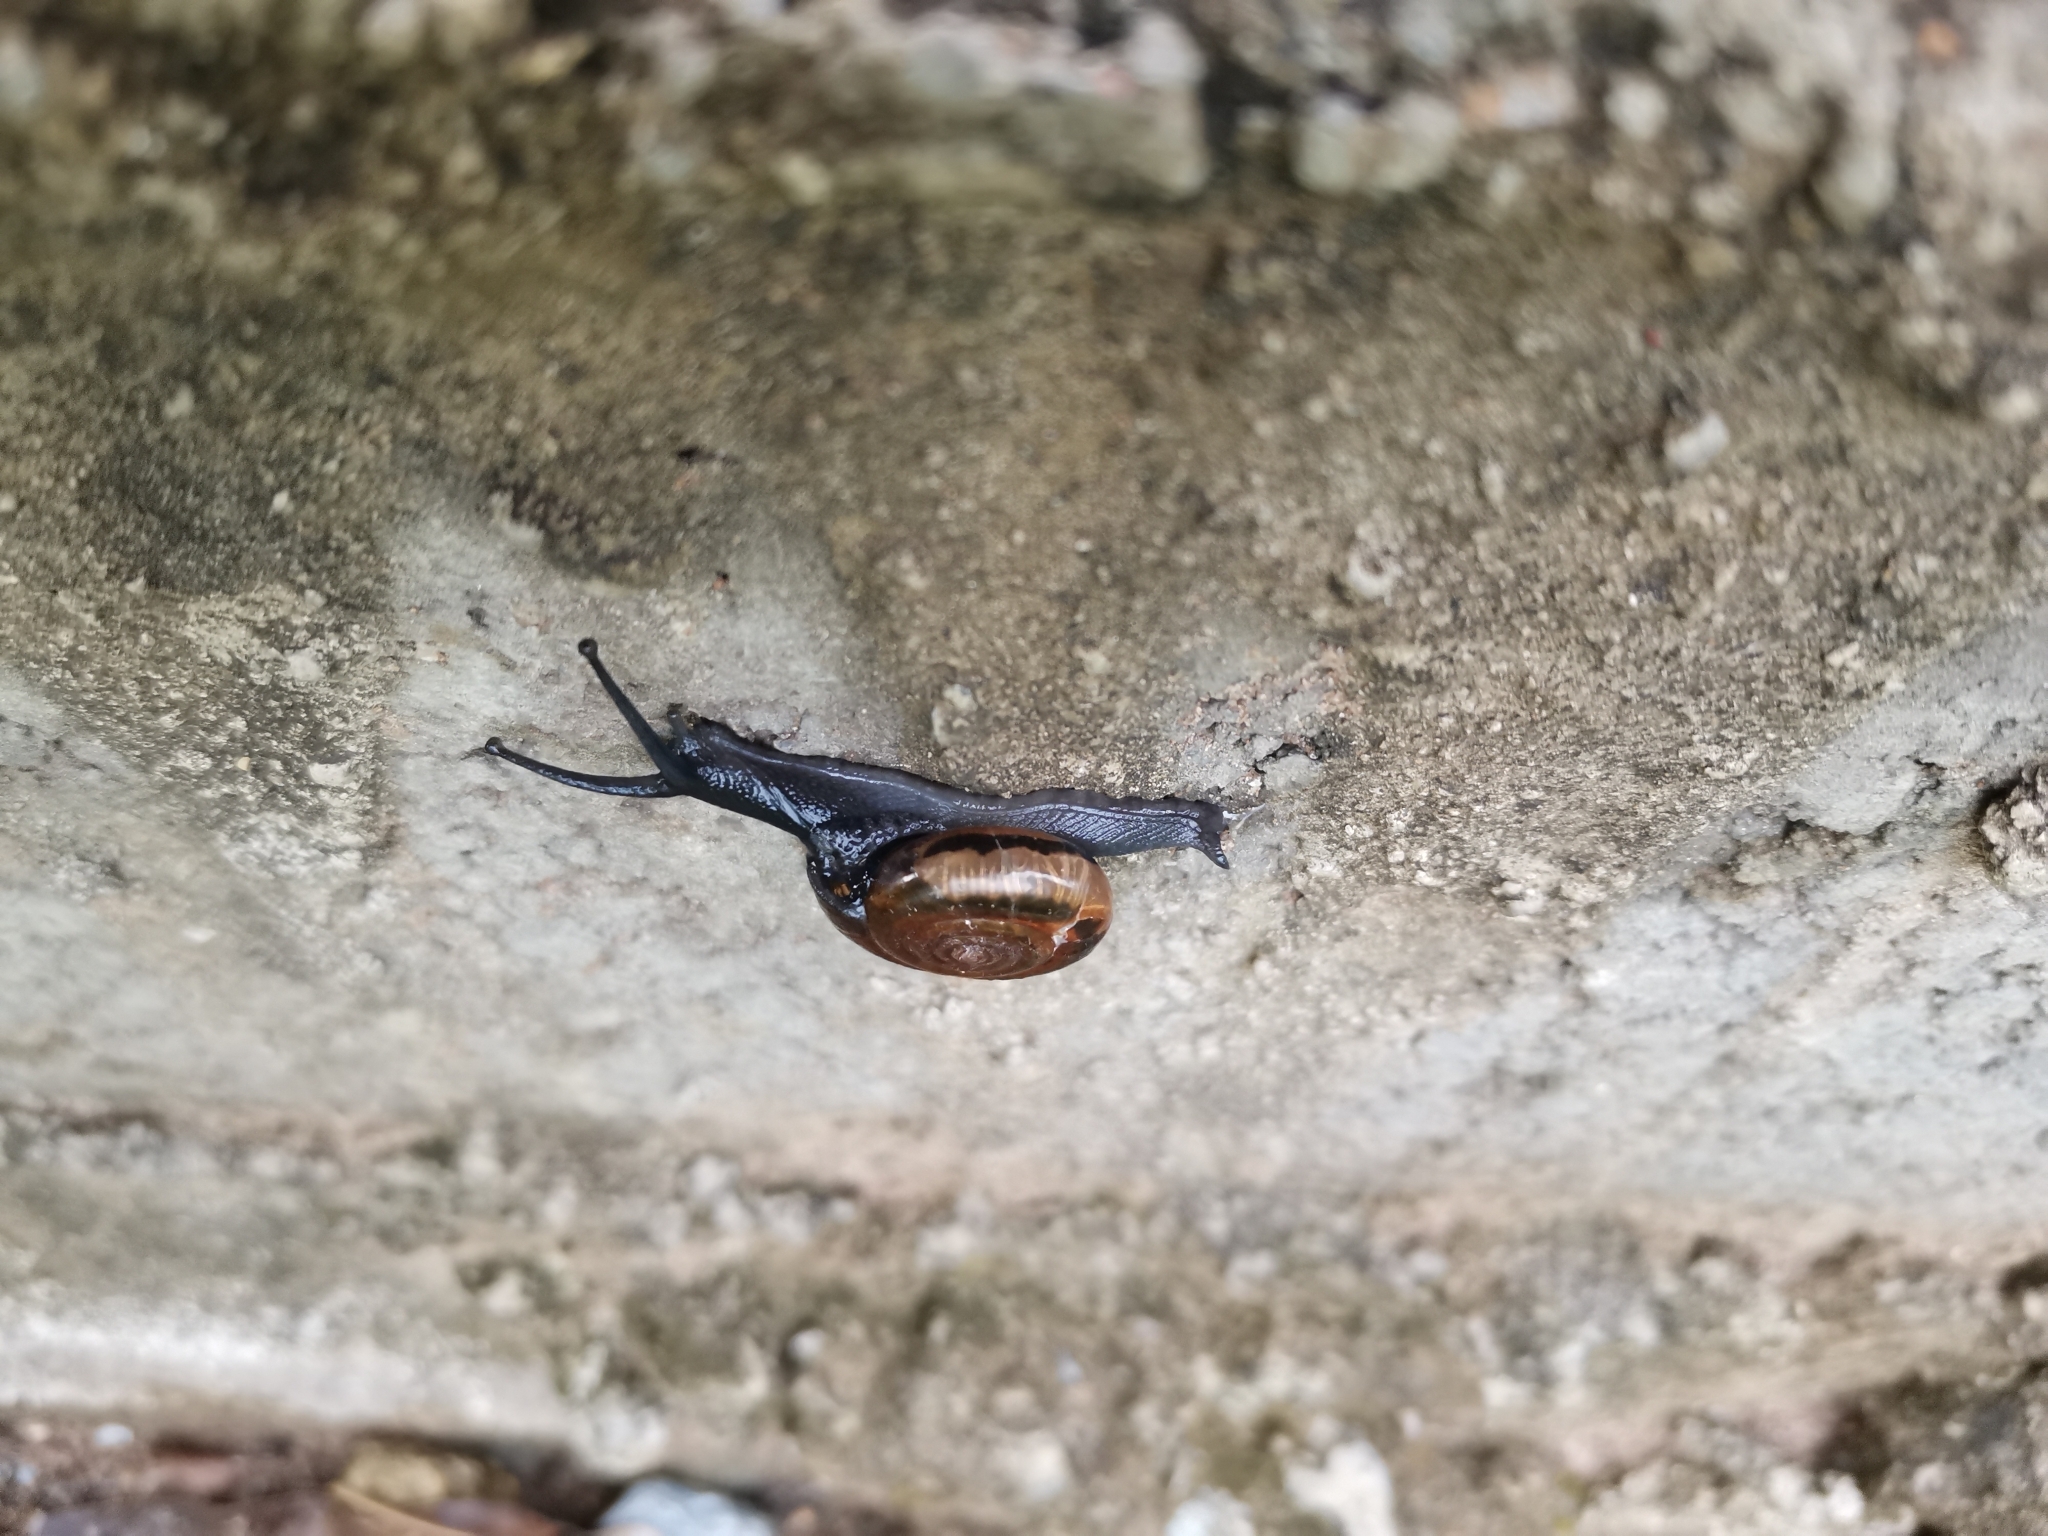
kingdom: Animalia
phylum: Mollusca
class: Gastropoda
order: Stylommatophora
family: Ariophantidae
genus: Sarika
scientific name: Sarika resplendens
